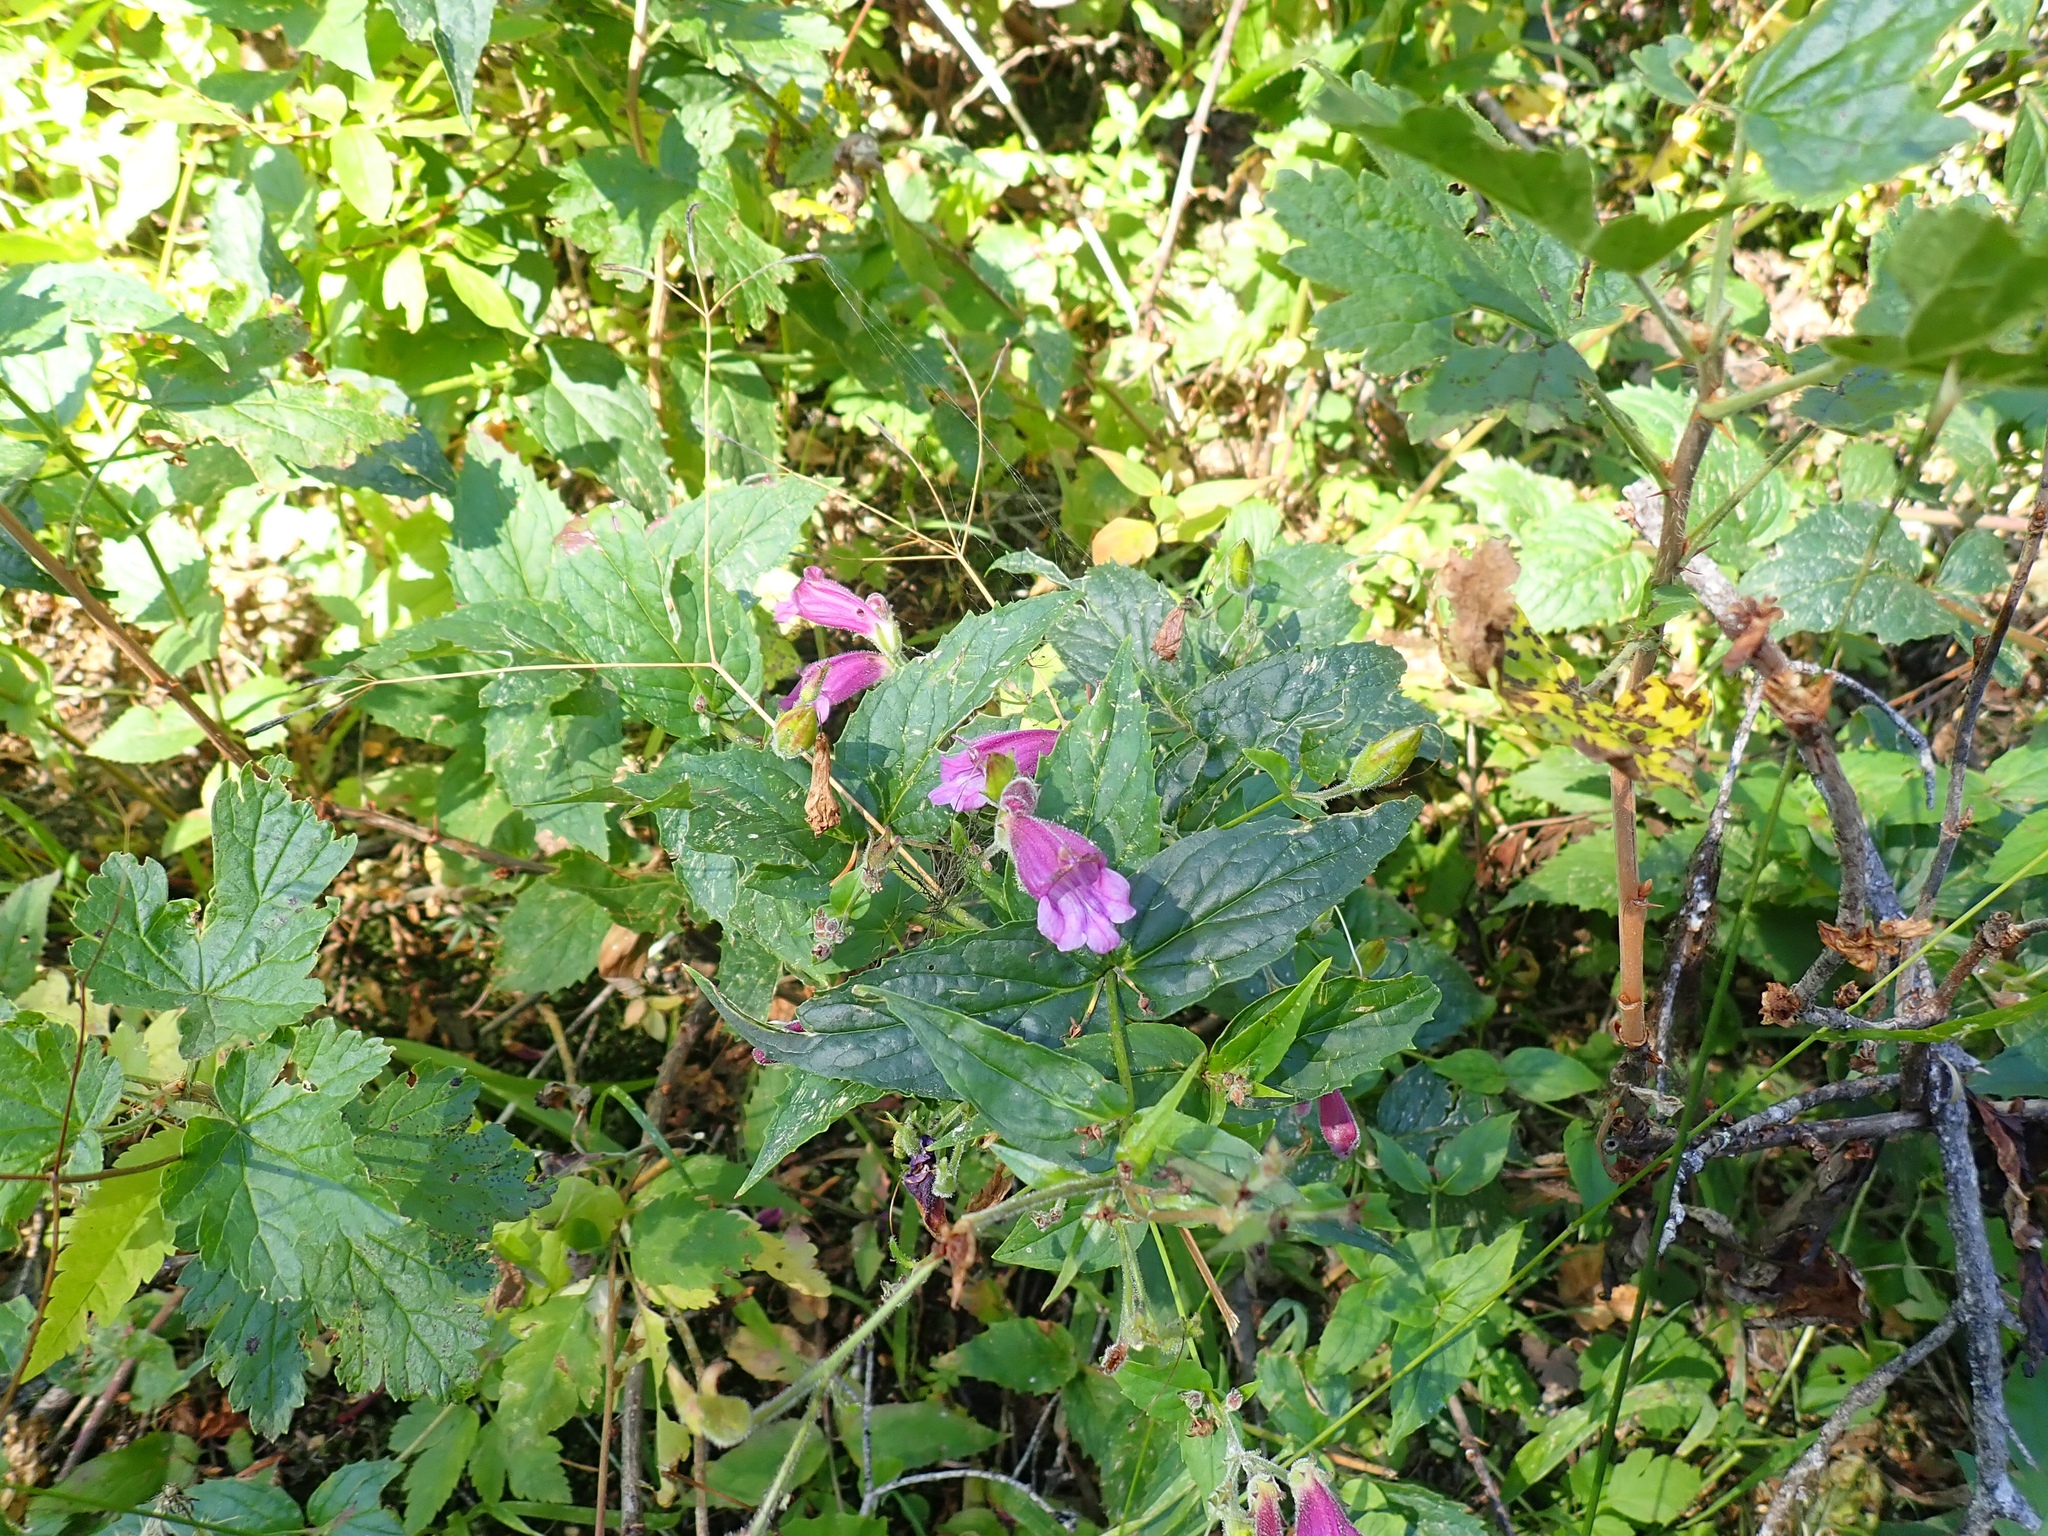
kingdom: Plantae
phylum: Tracheophyta
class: Magnoliopsida
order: Lamiales
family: Plantaginaceae
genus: Nothochelone
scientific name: Nothochelone nemorosa
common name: Woodland beardtongue
